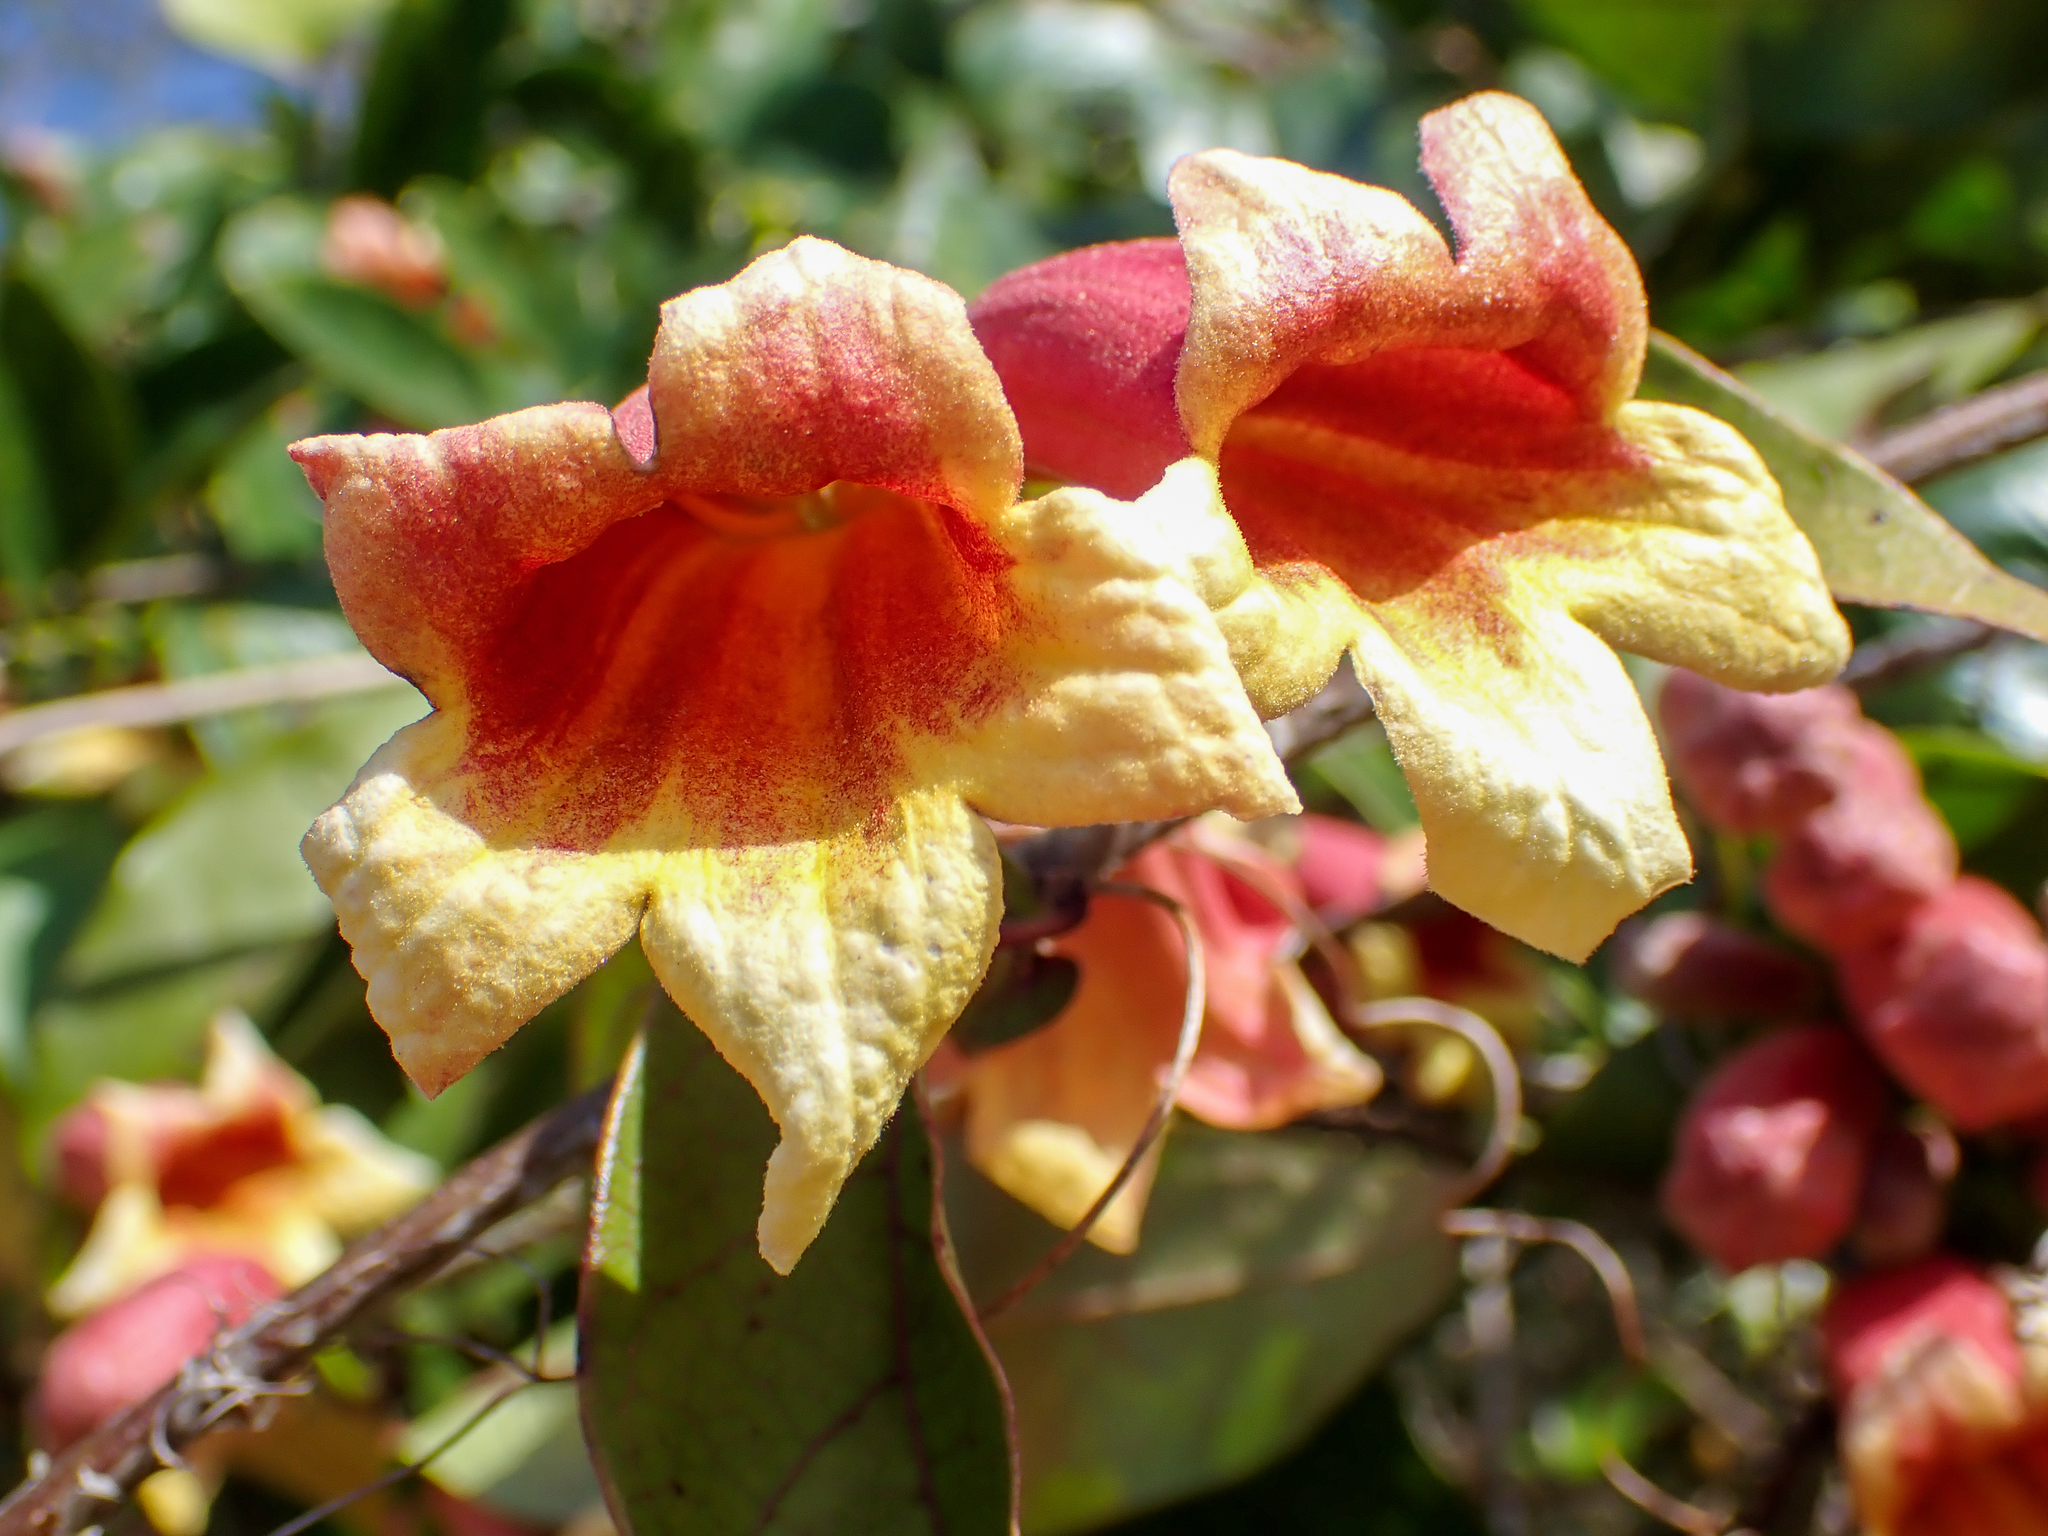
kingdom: Plantae
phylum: Tracheophyta
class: Magnoliopsida
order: Lamiales
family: Bignoniaceae
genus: Bignonia
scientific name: Bignonia capreolata
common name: Crossvine
